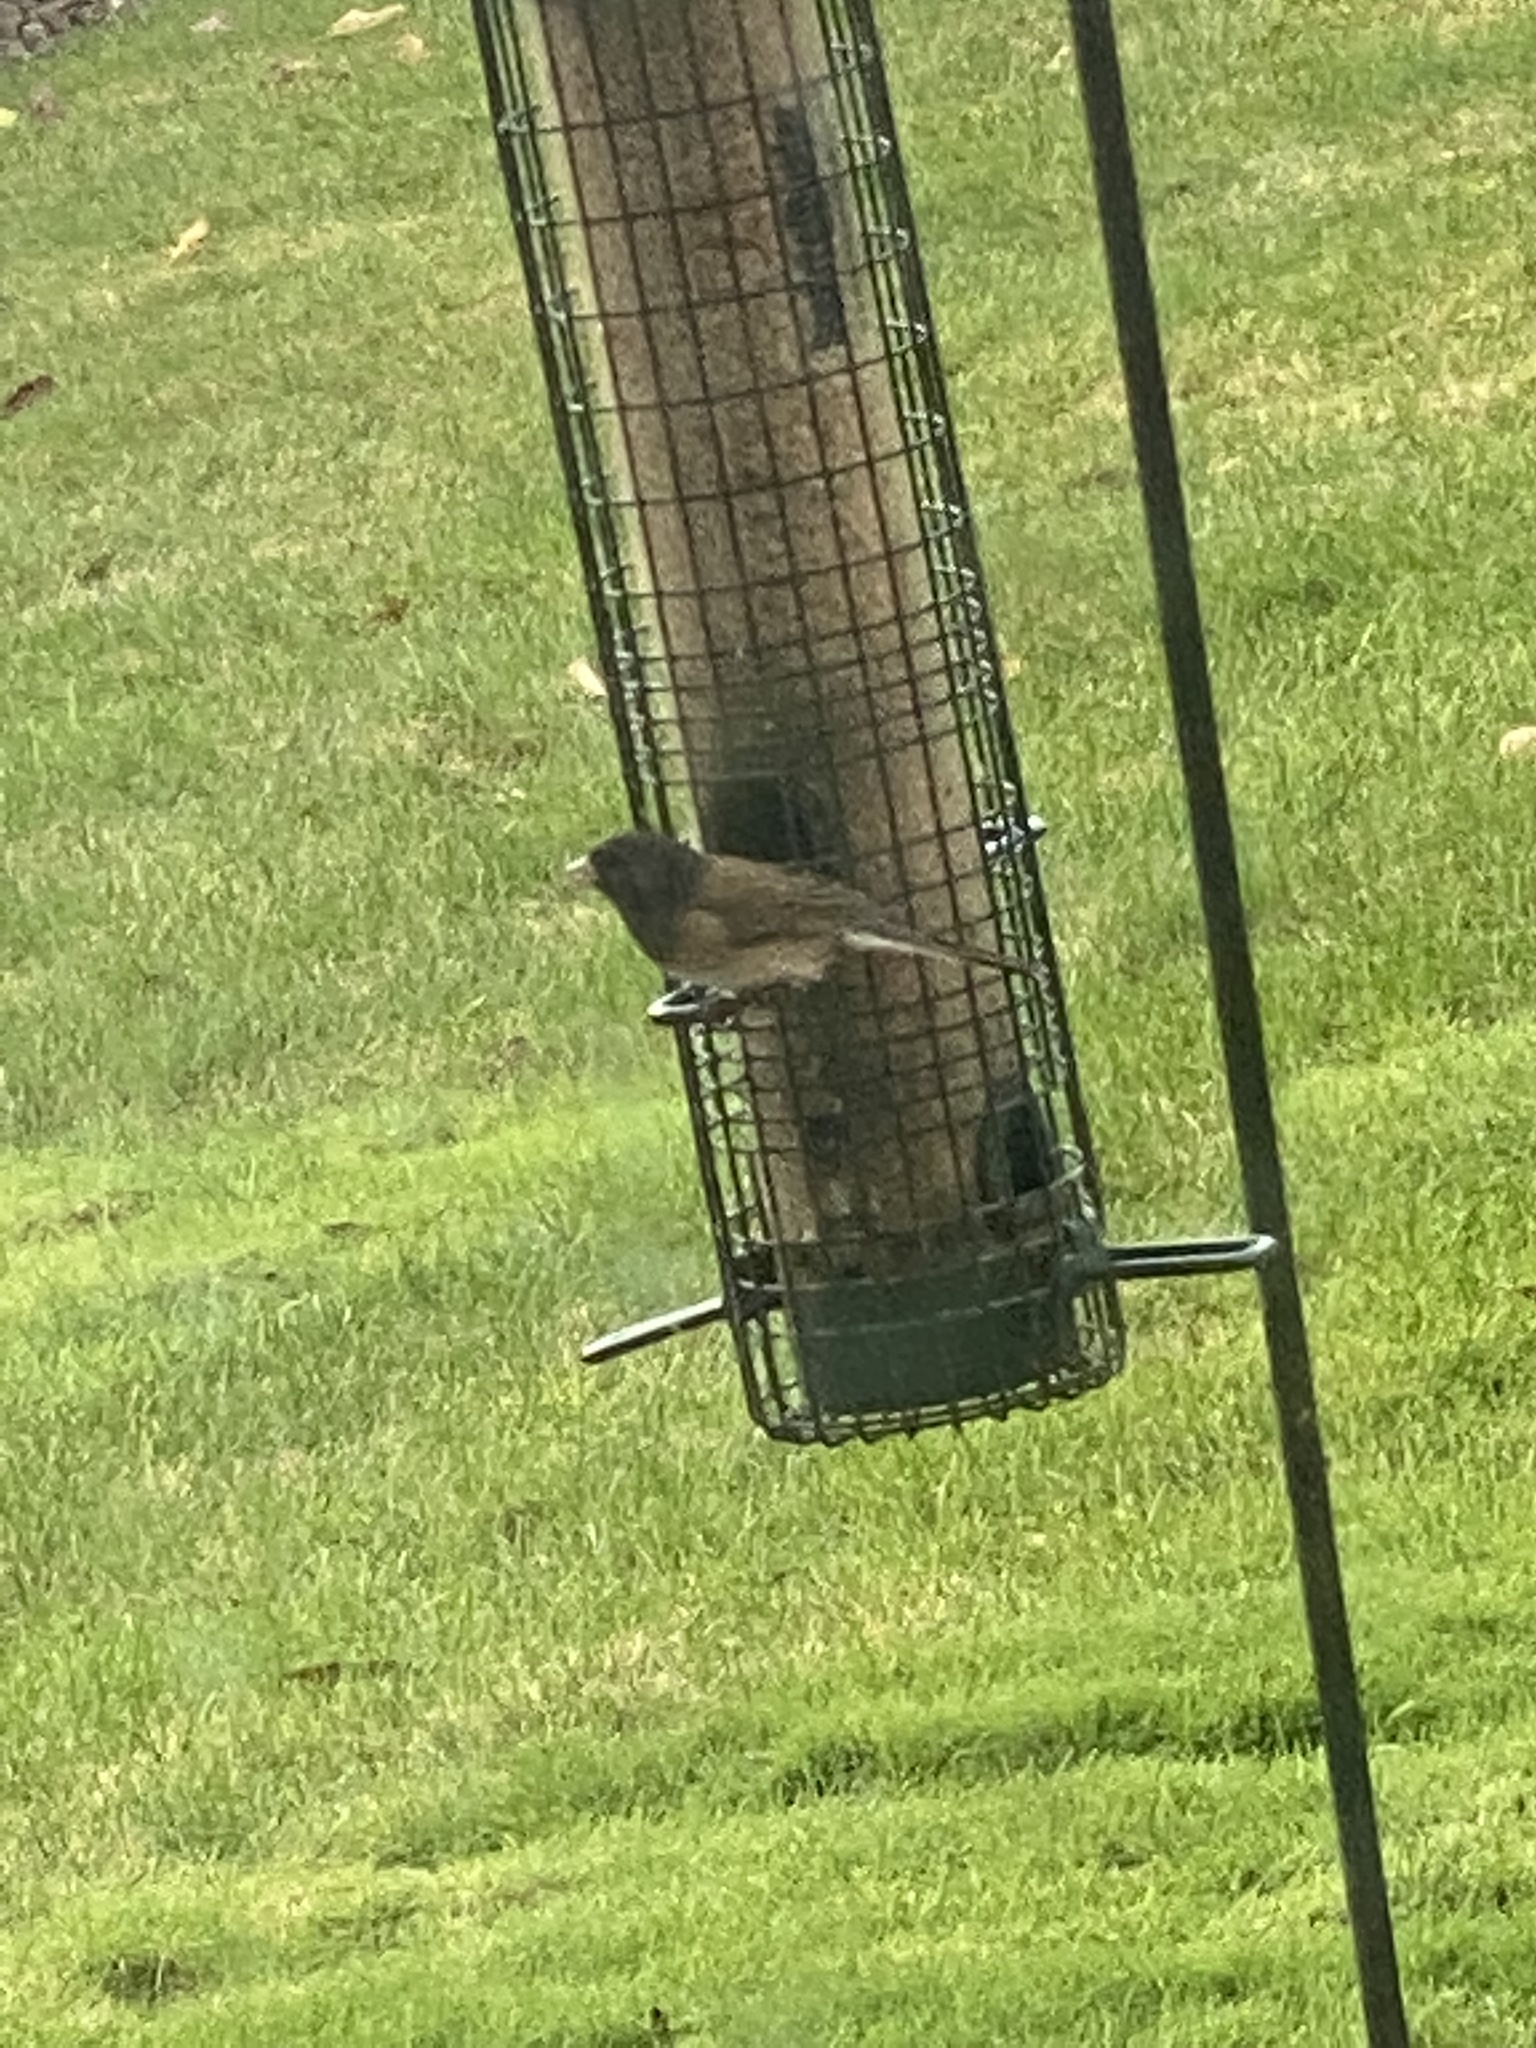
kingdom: Animalia
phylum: Chordata
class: Aves
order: Passeriformes
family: Passerellidae
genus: Junco
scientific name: Junco hyemalis
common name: Dark-eyed junco
